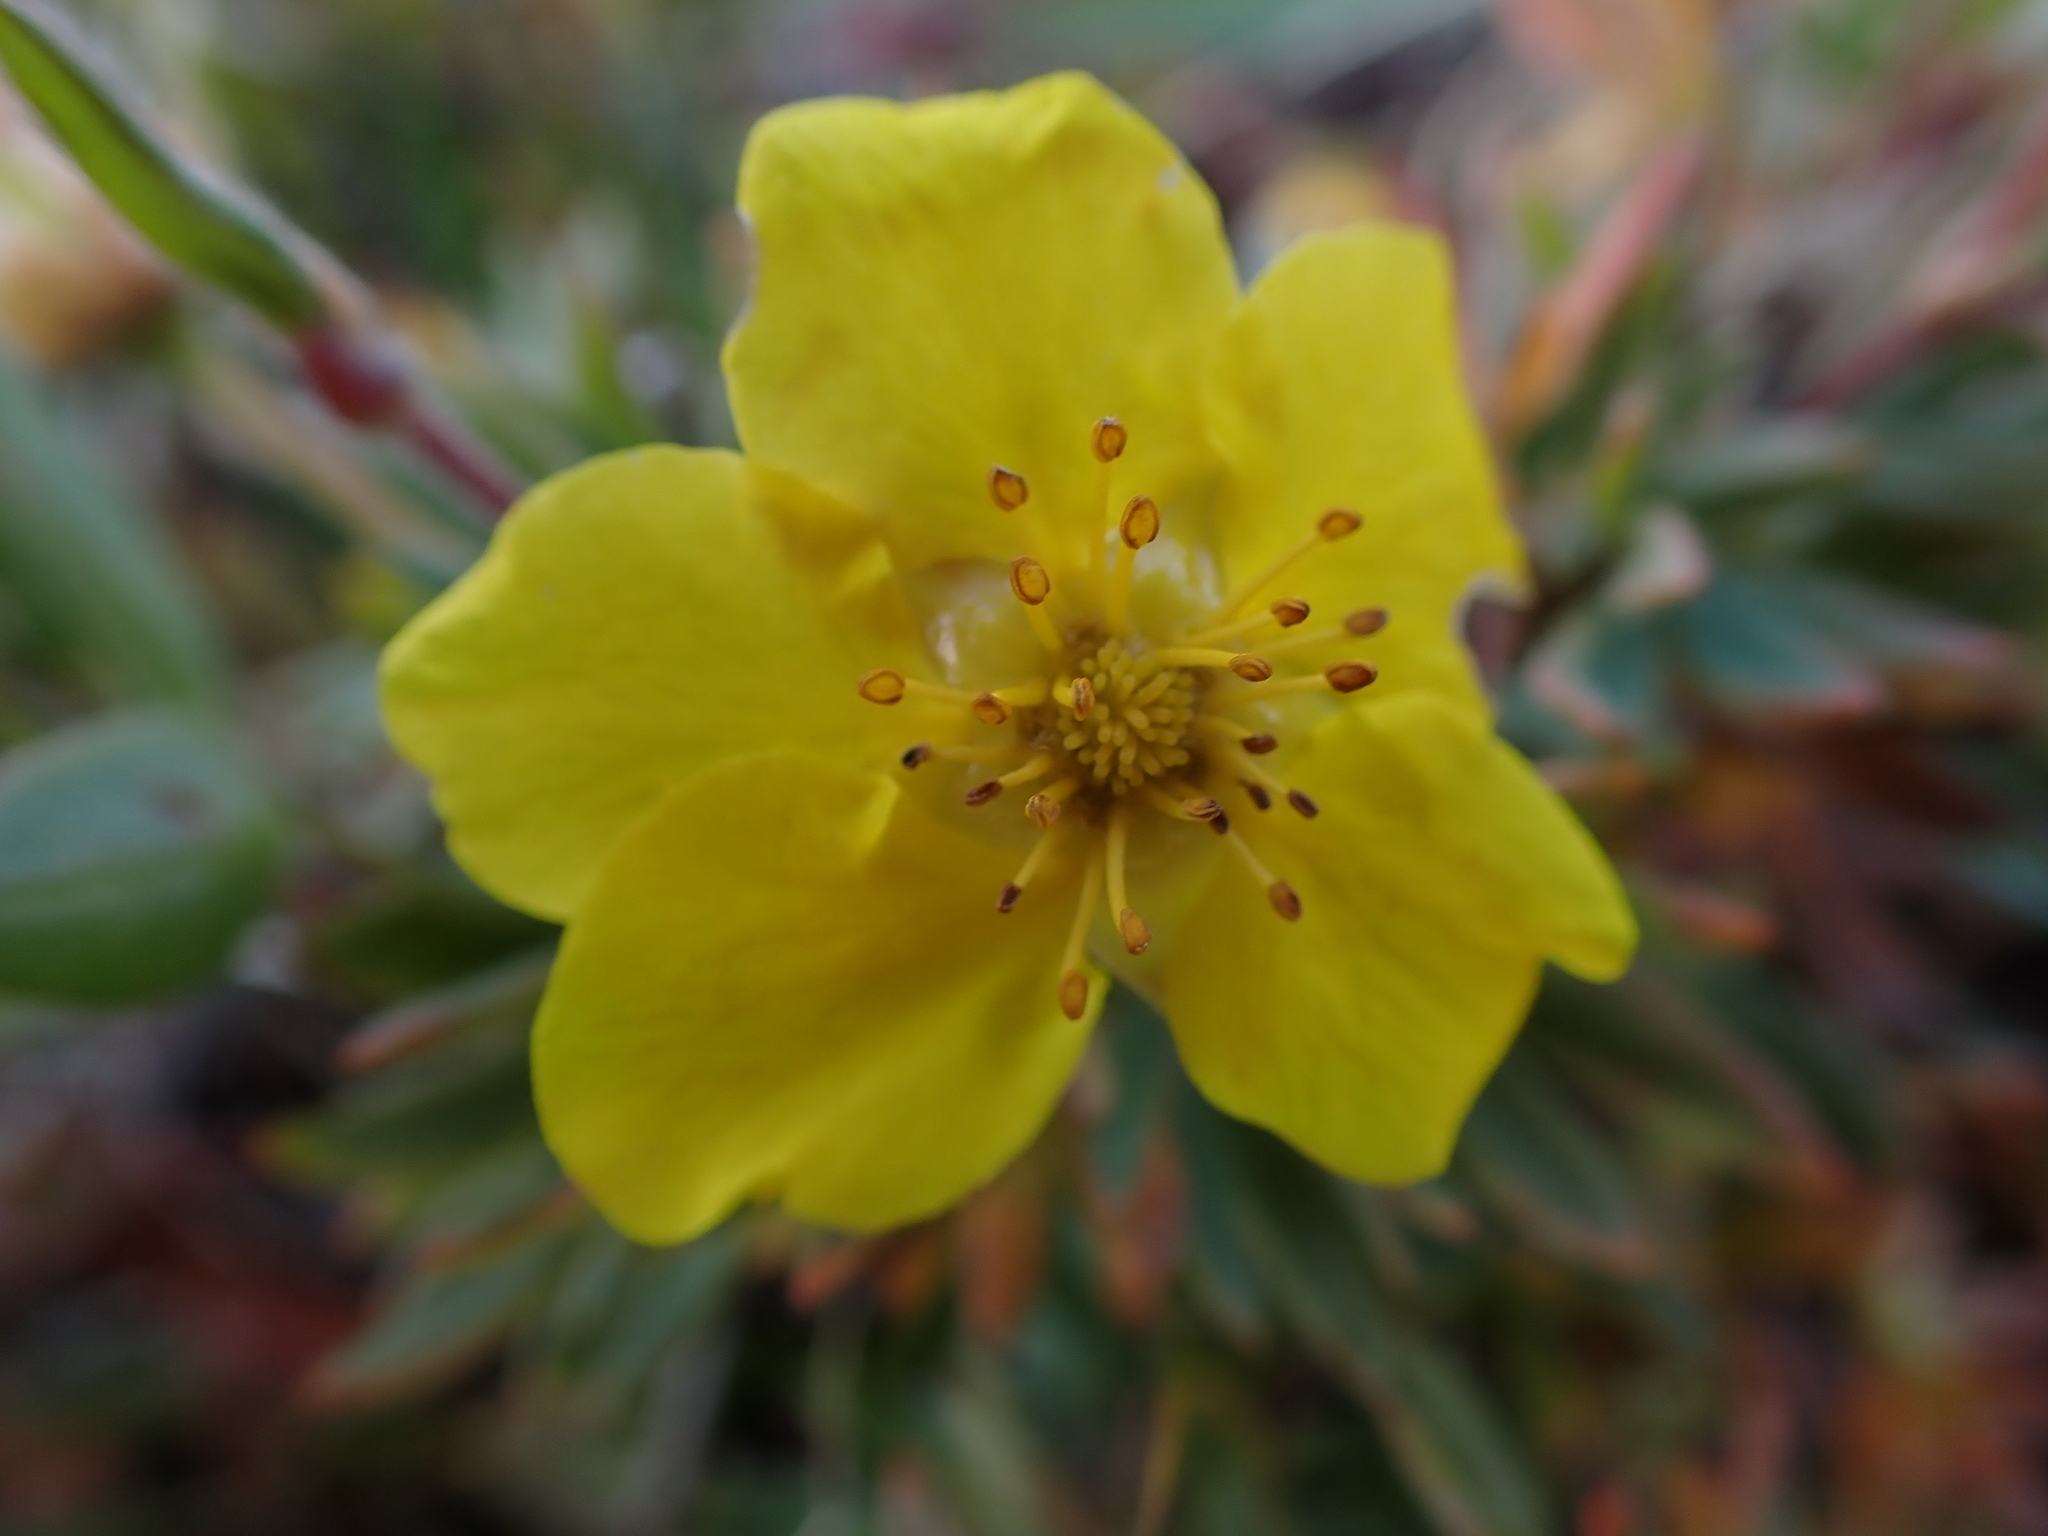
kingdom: Plantae
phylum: Tracheophyta
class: Magnoliopsida
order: Rosales
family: Rosaceae
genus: Dasiphora
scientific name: Dasiphora fruticosa
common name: Shrubby cinquefoil
